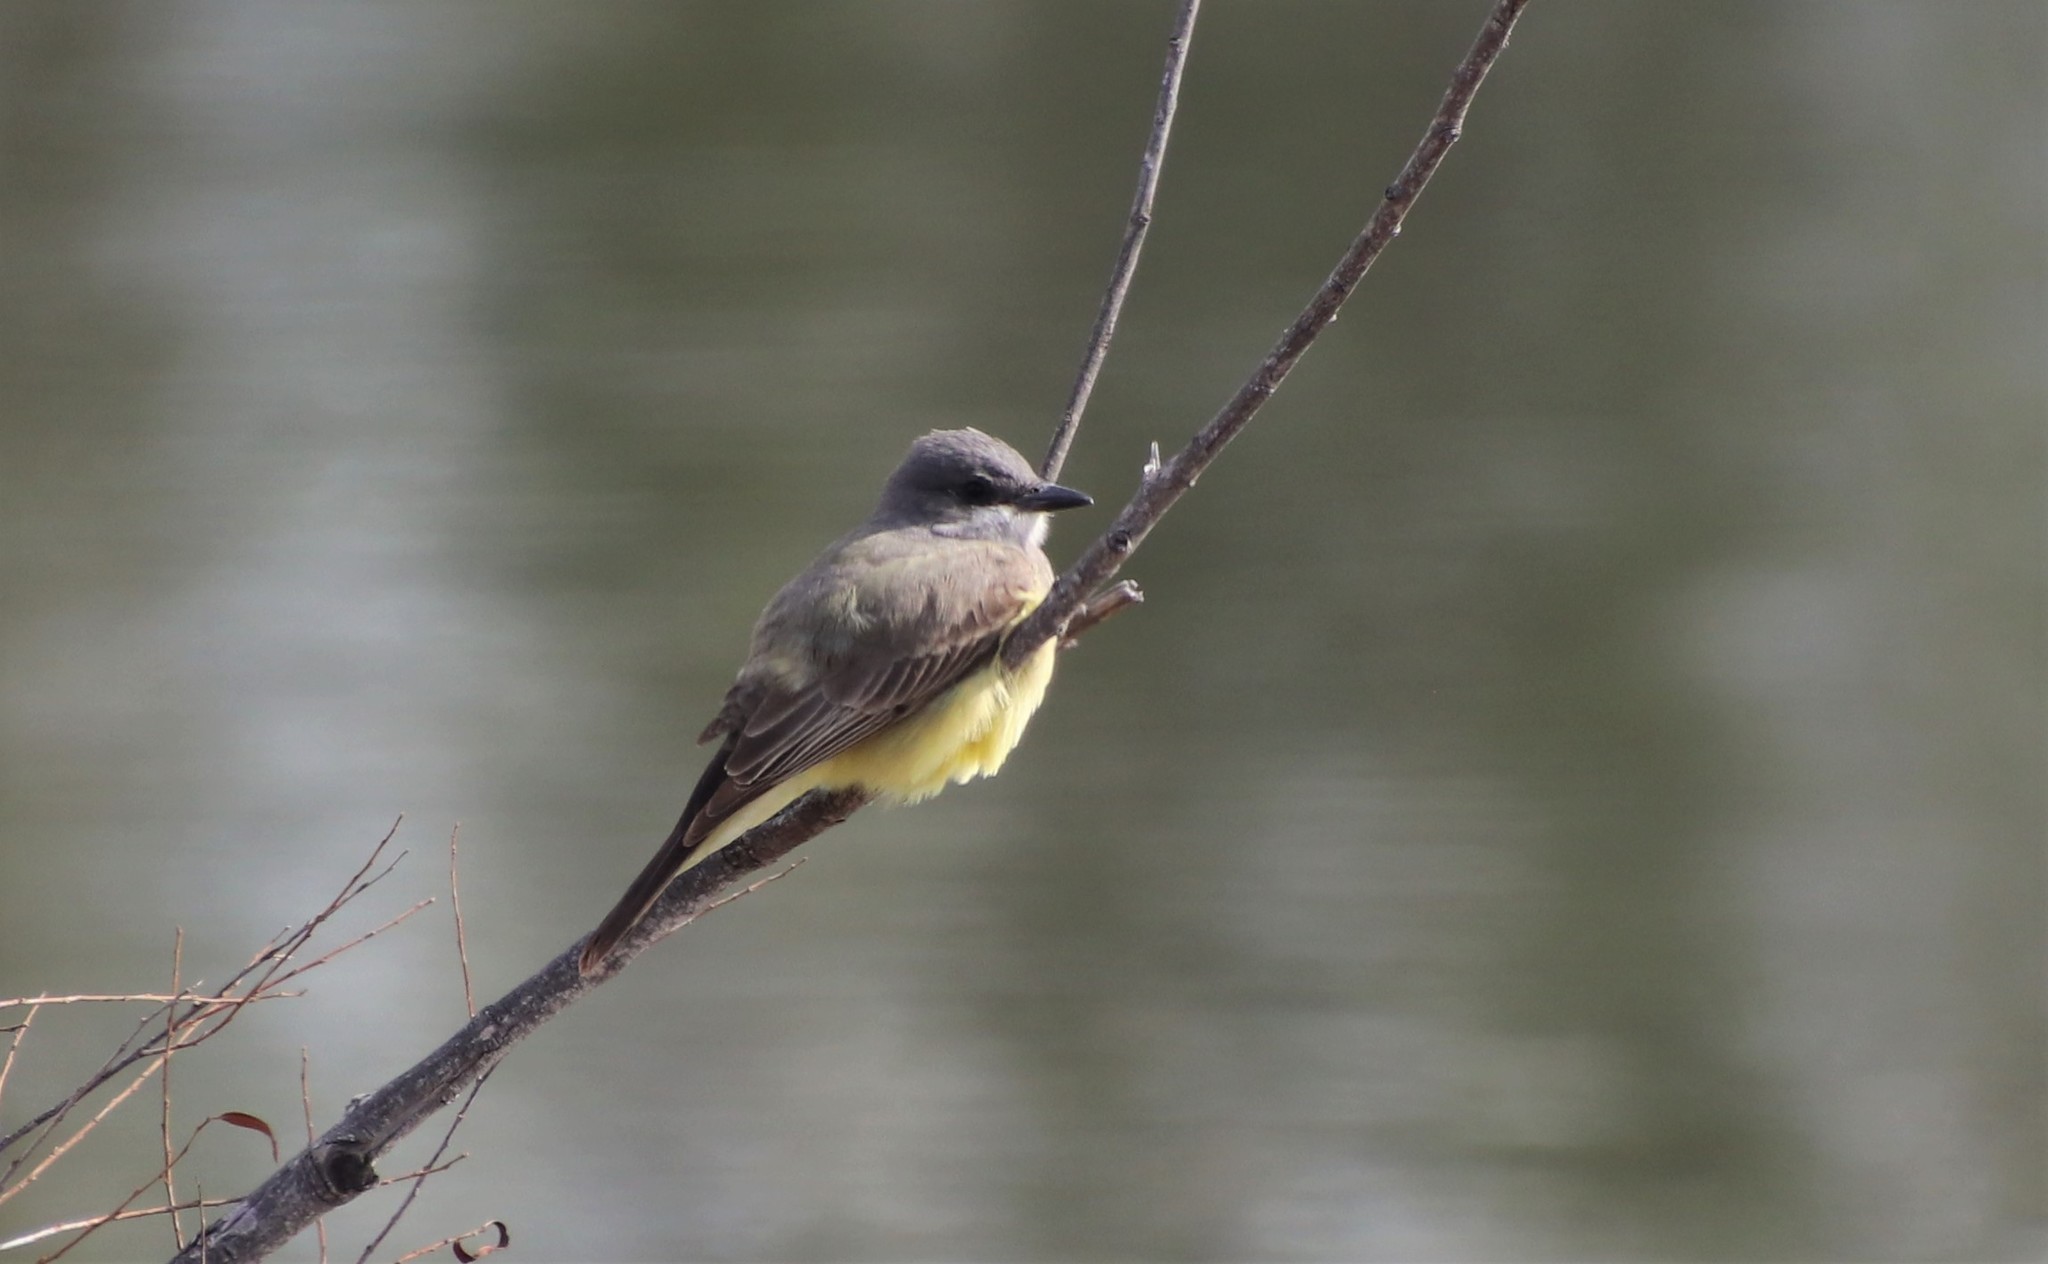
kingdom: Animalia
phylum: Chordata
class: Aves
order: Passeriformes
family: Tyrannidae
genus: Tyrannus
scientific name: Tyrannus vociferans
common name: Cassin's kingbird
